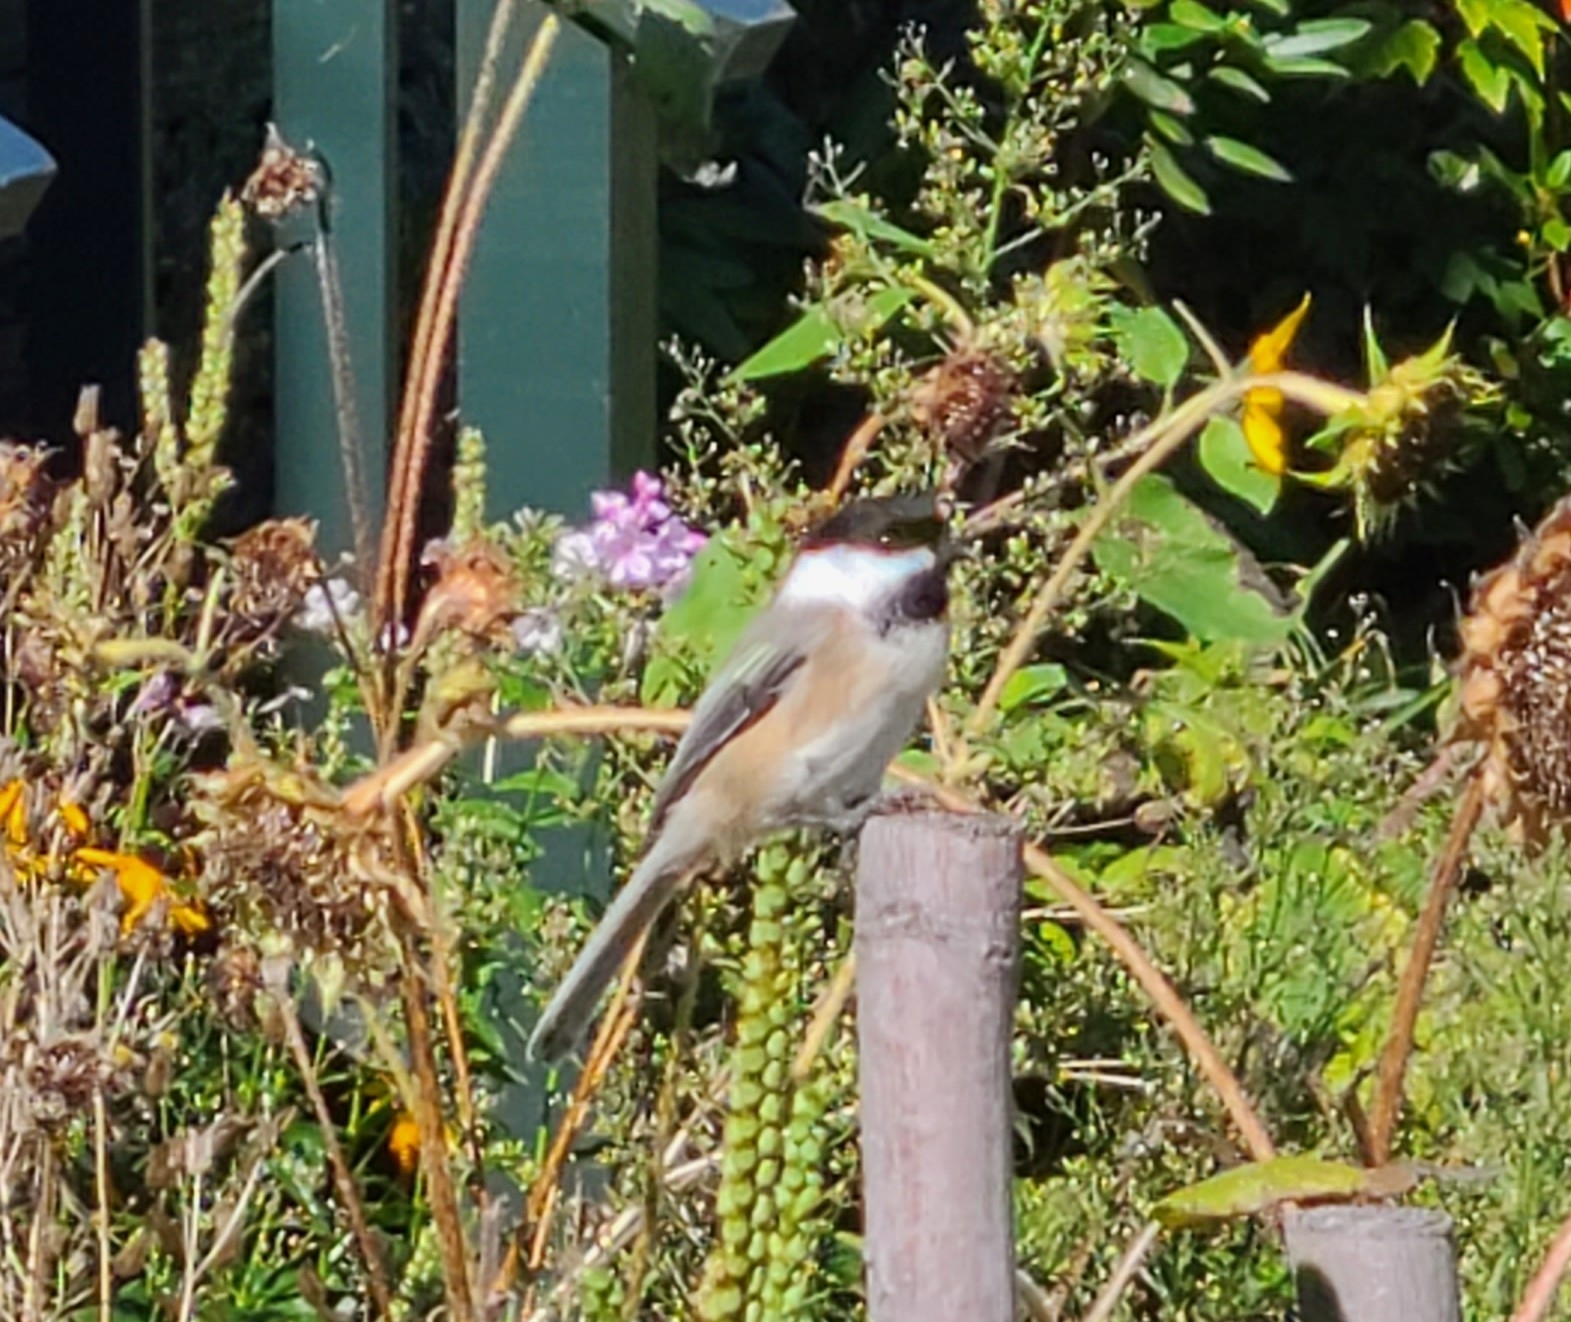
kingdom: Animalia
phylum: Chordata
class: Aves
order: Passeriformes
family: Paridae
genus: Poecile
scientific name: Poecile atricapillus
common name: Black-capped chickadee
